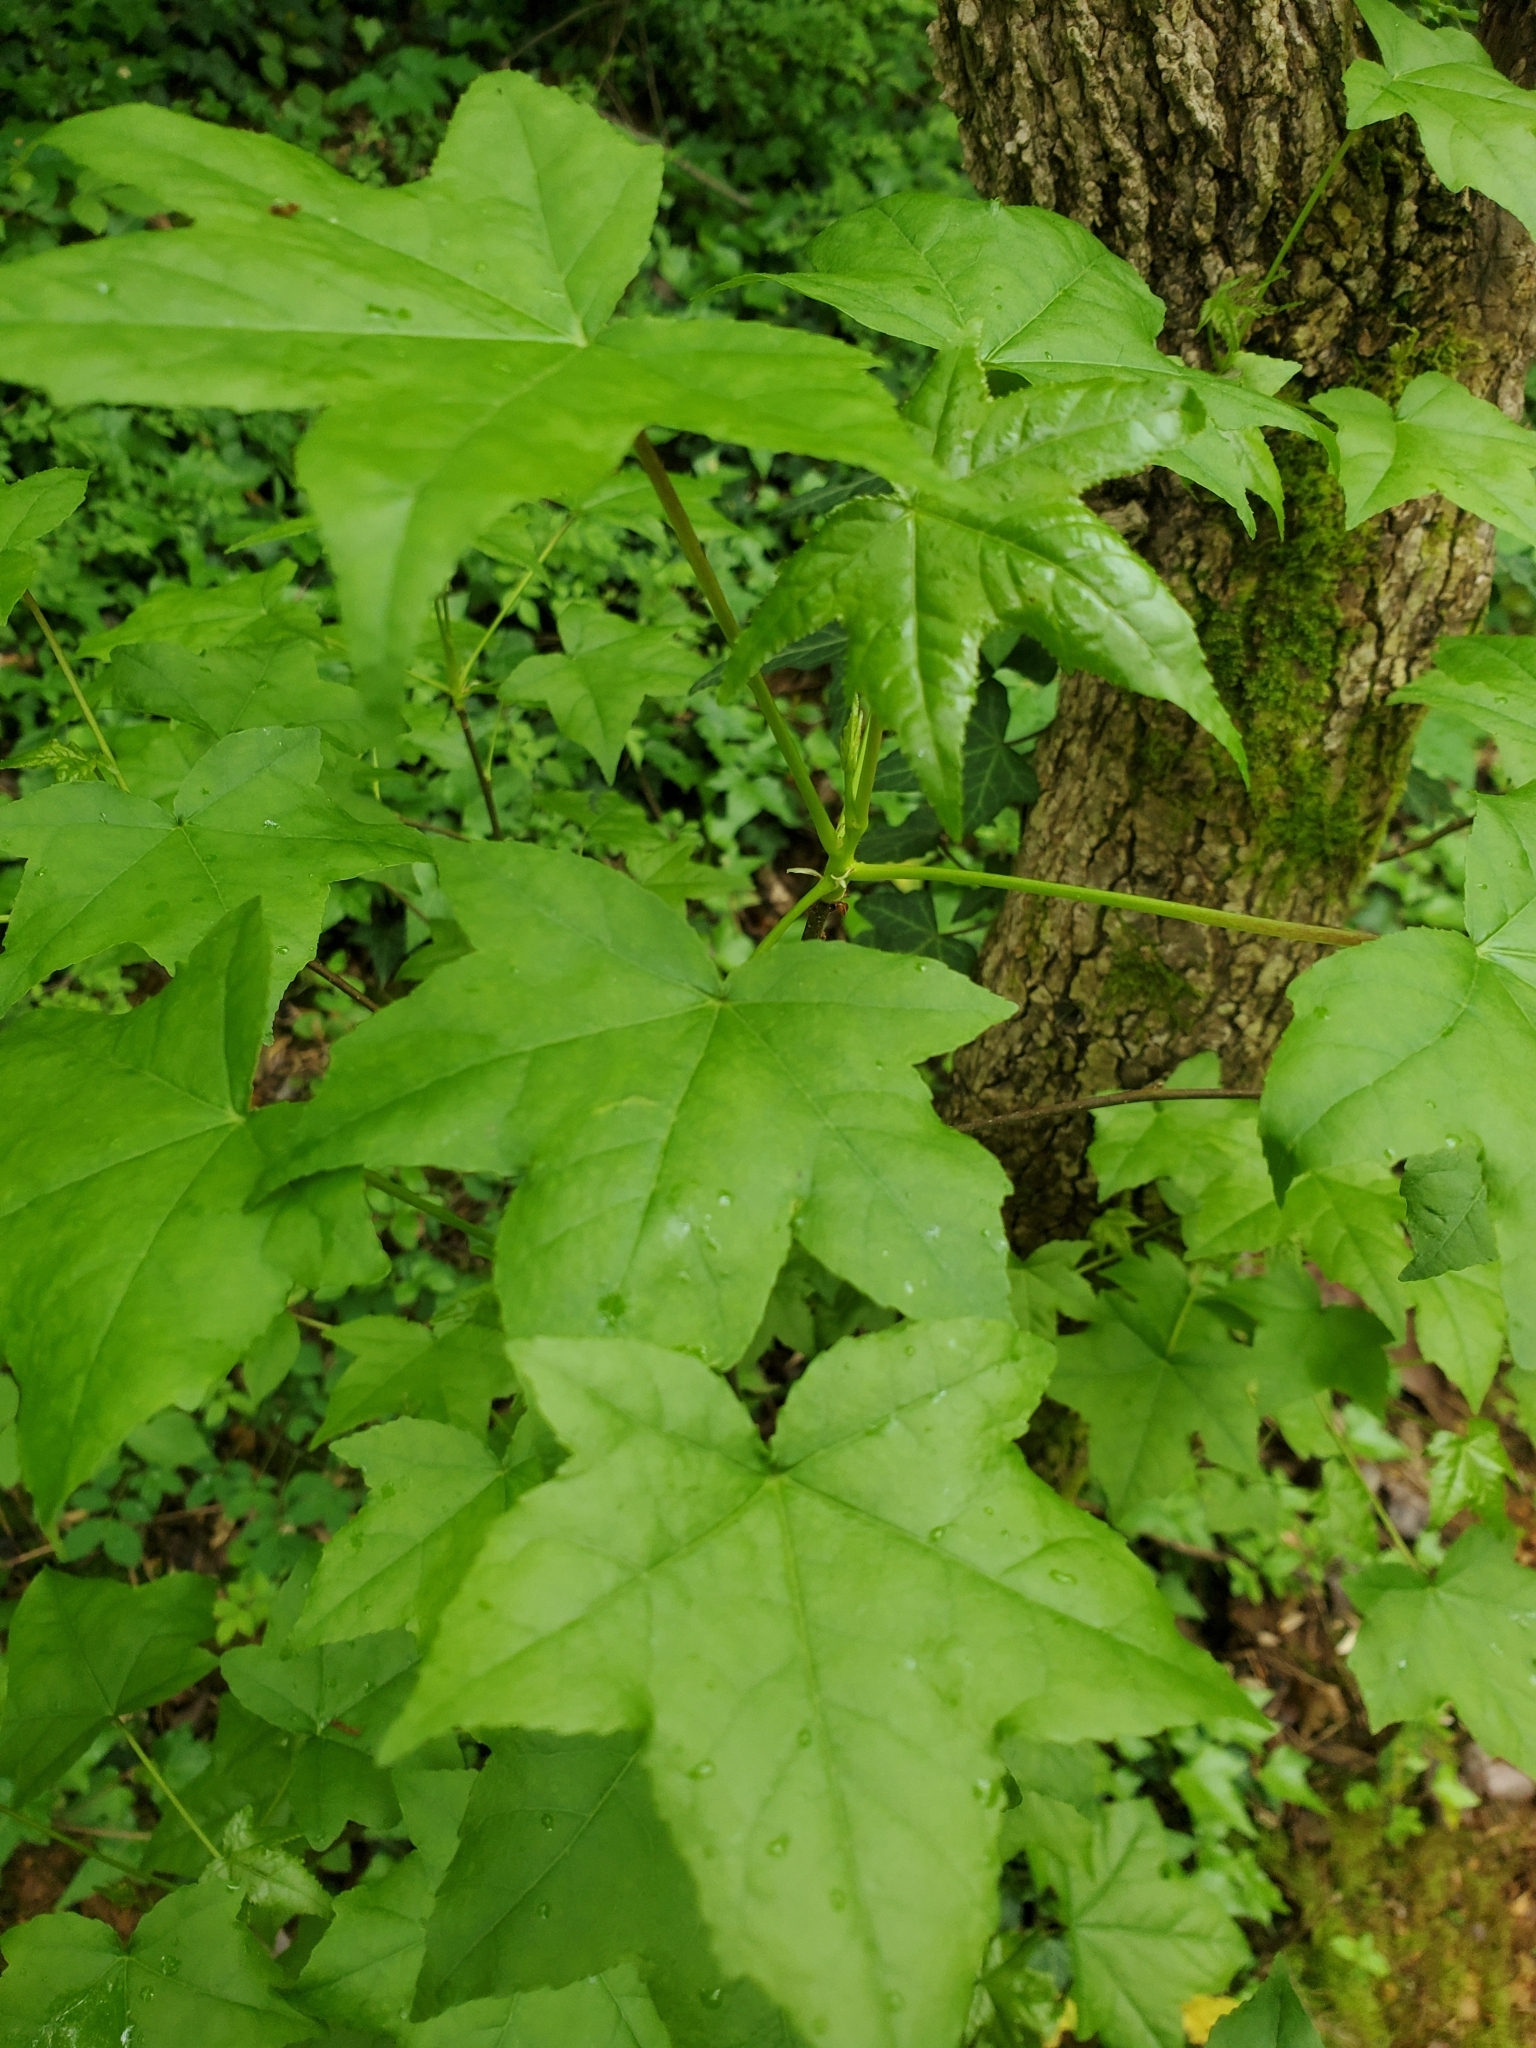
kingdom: Plantae
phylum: Tracheophyta
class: Magnoliopsida
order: Saxifragales
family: Altingiaceae
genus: Liquidambar
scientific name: Liquidambar styraciflua
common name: Sweet gum
